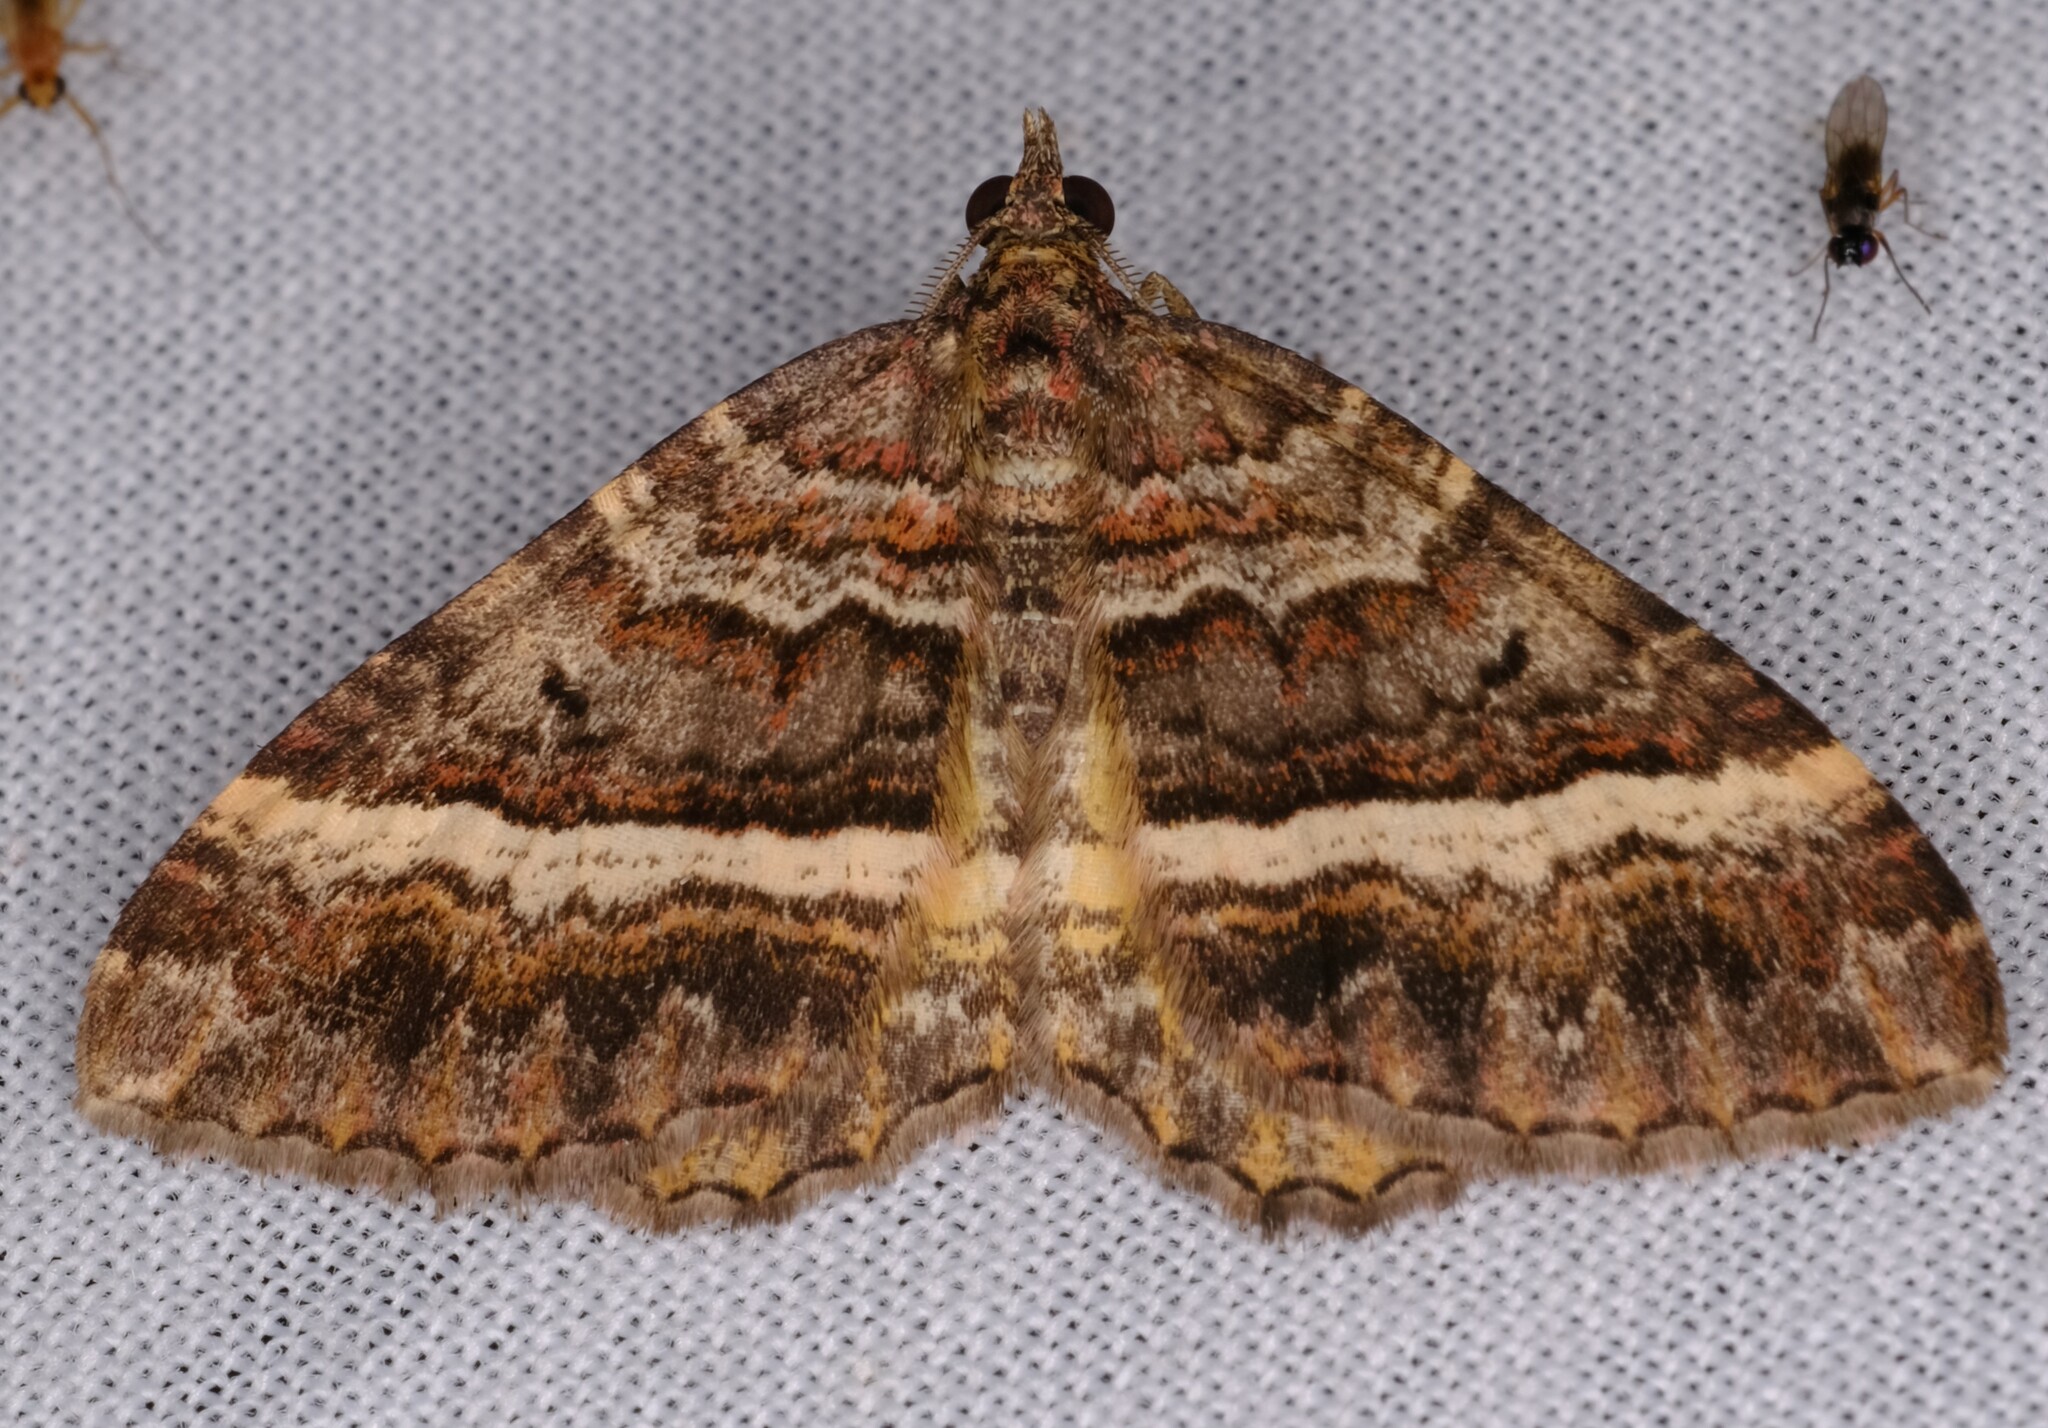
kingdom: Animalia
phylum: Arthropoda
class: Insecta
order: Lepidoptera
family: Geometridae
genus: Chrysolarentia
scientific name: Chrysolarentia vicissata
